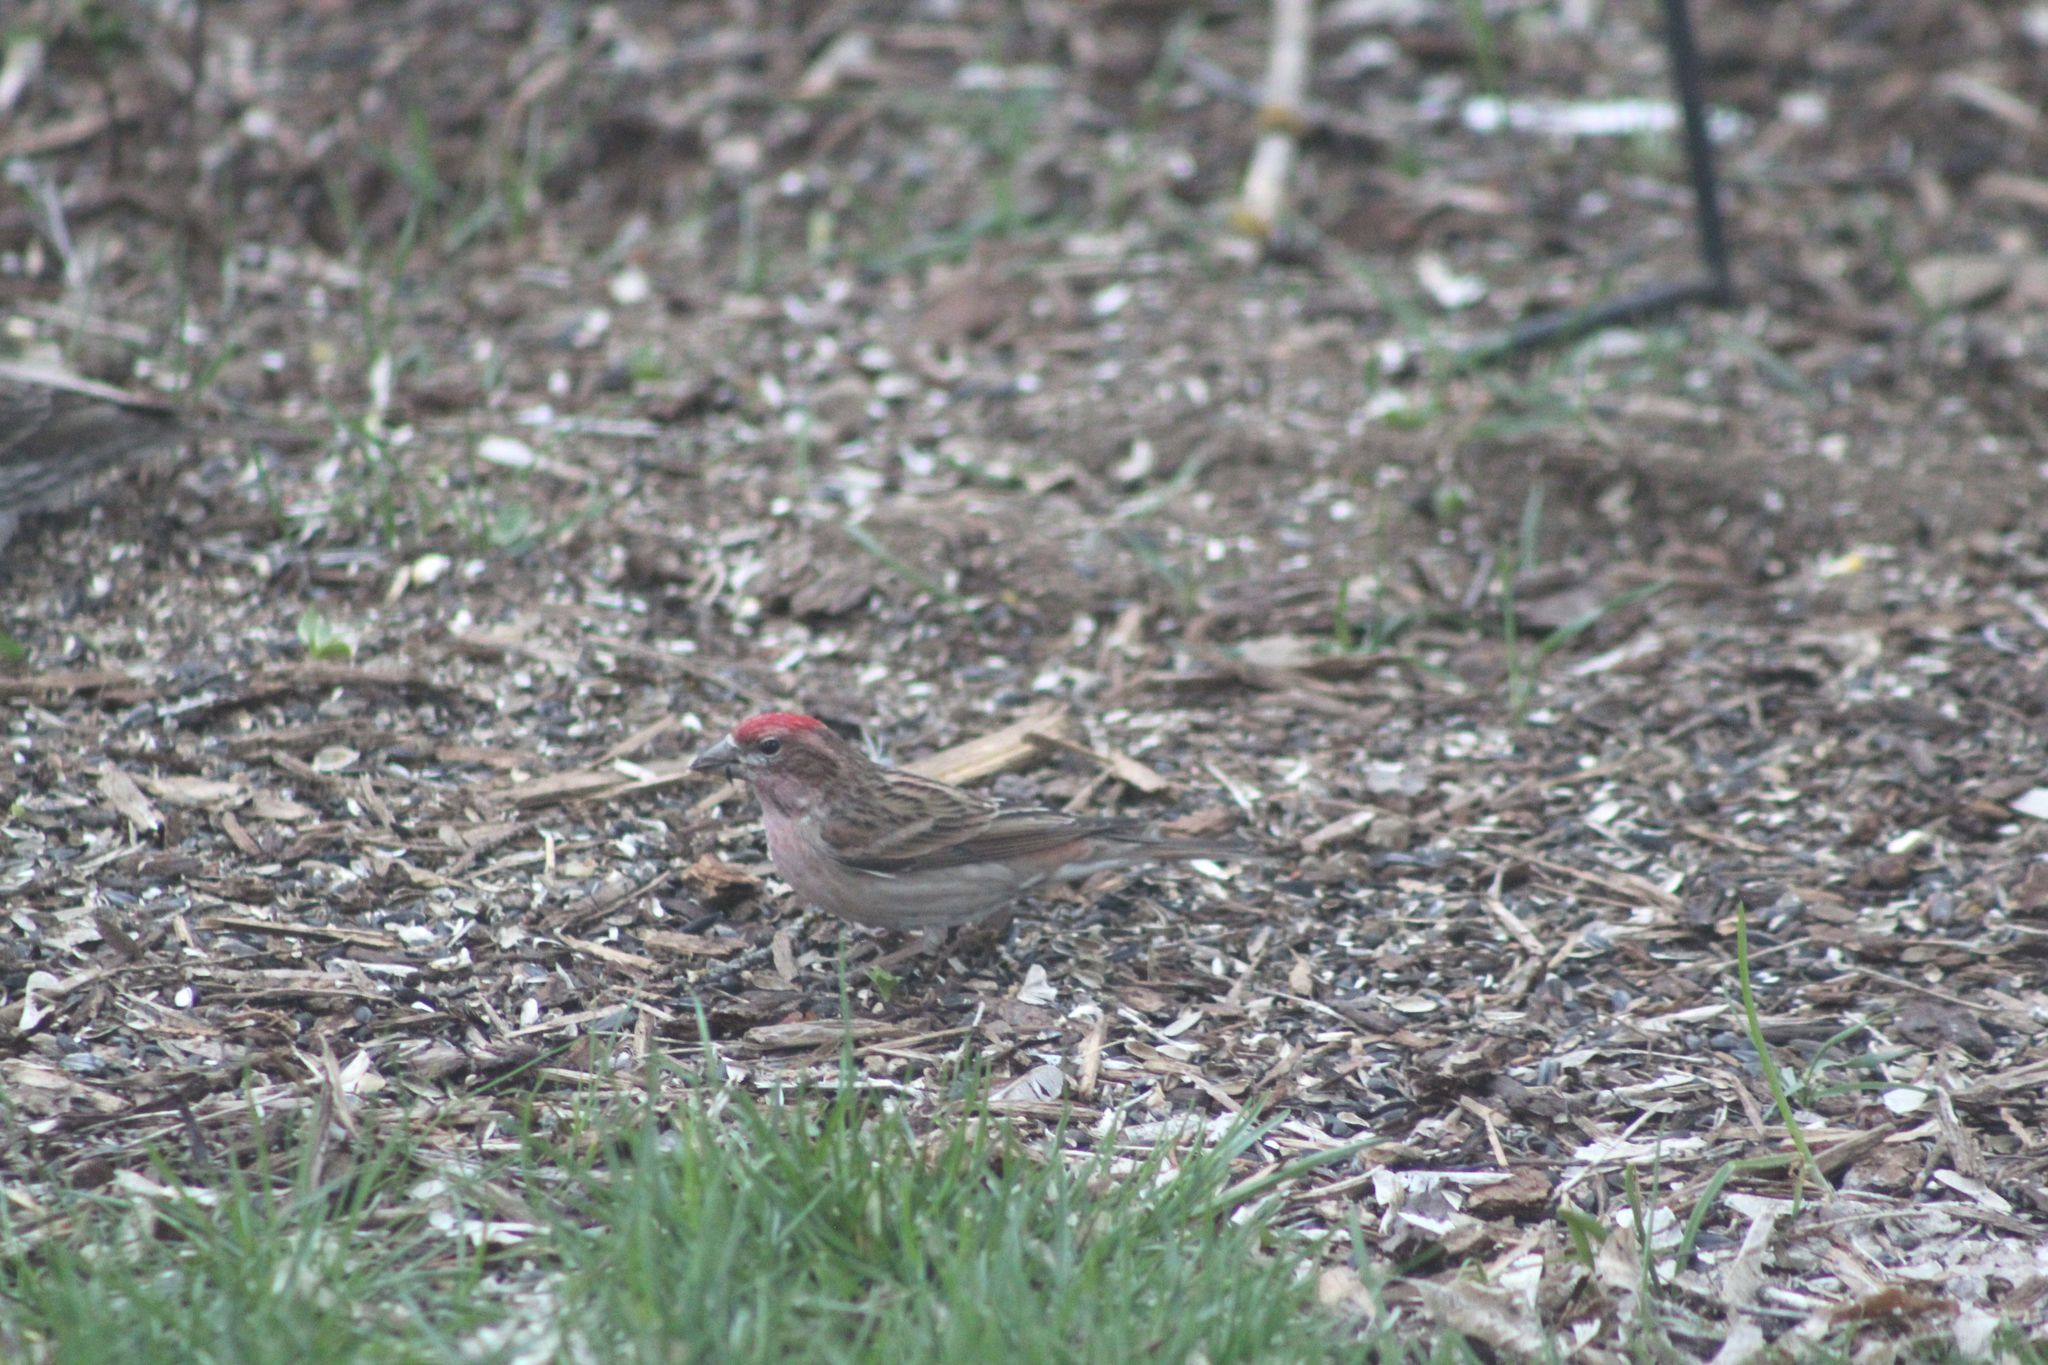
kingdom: Animalia
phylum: Chordata
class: Aves
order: Passeriformes
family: Fringillidae
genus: Haemorhous
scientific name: Haemorhous cassinii
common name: Cassin's finch
